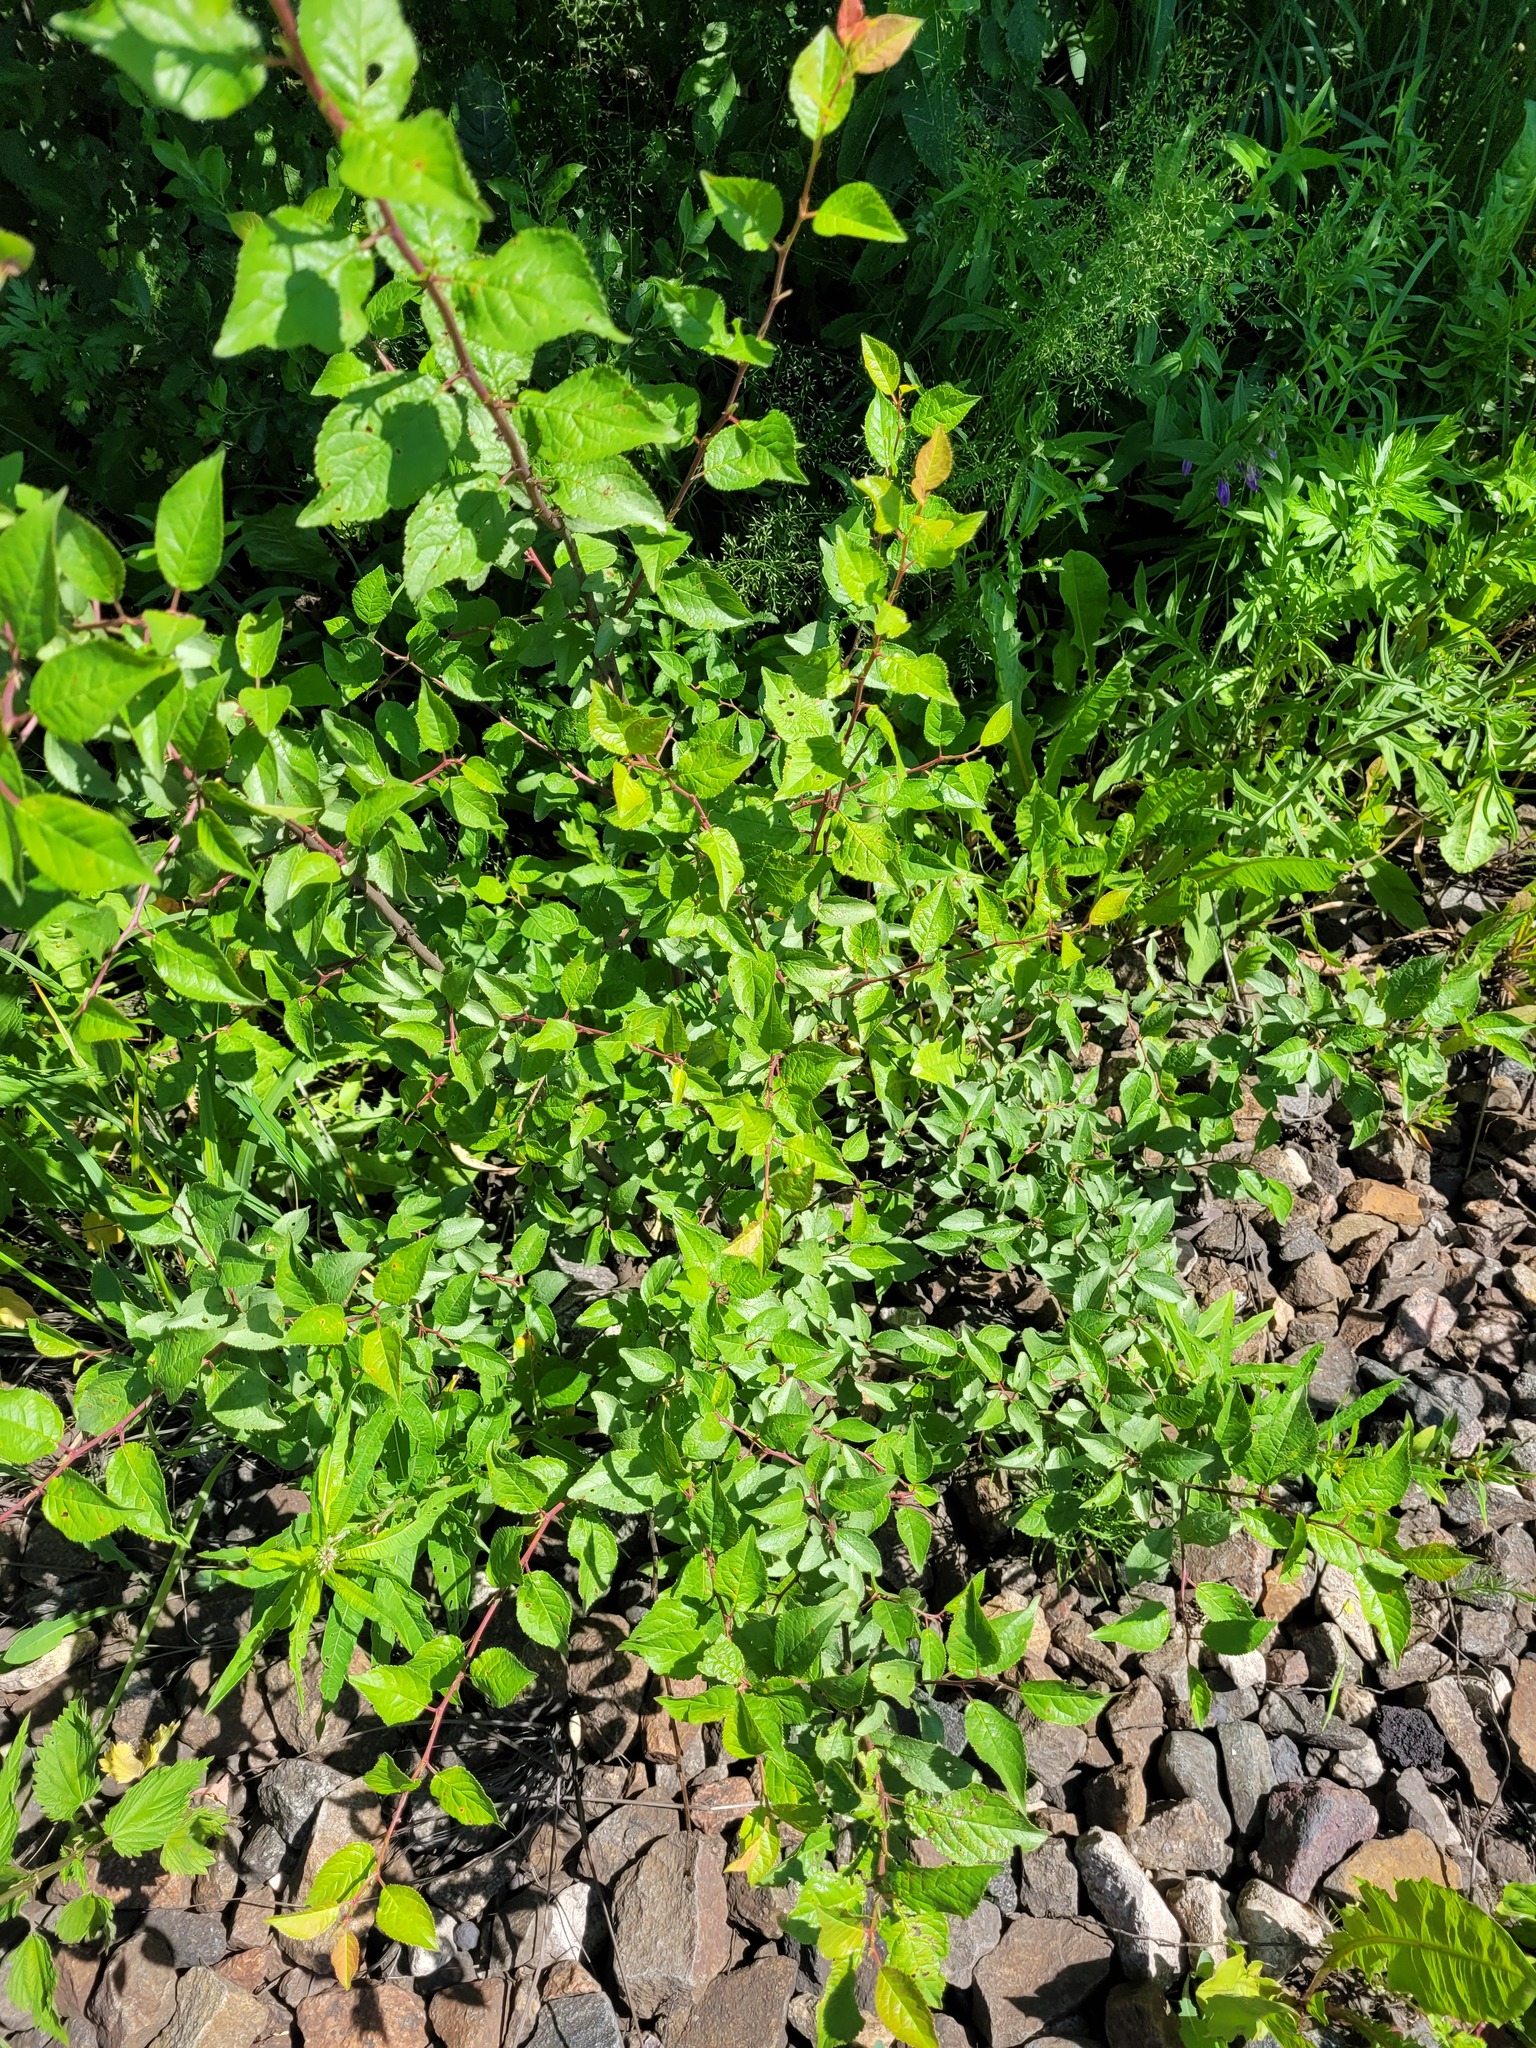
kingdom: Plantae
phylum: Tracheophyta
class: Magnoliopsida
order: Rosales
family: Rosaceae
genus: Prunus
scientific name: Prunus cerasifera
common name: Cherry plum
